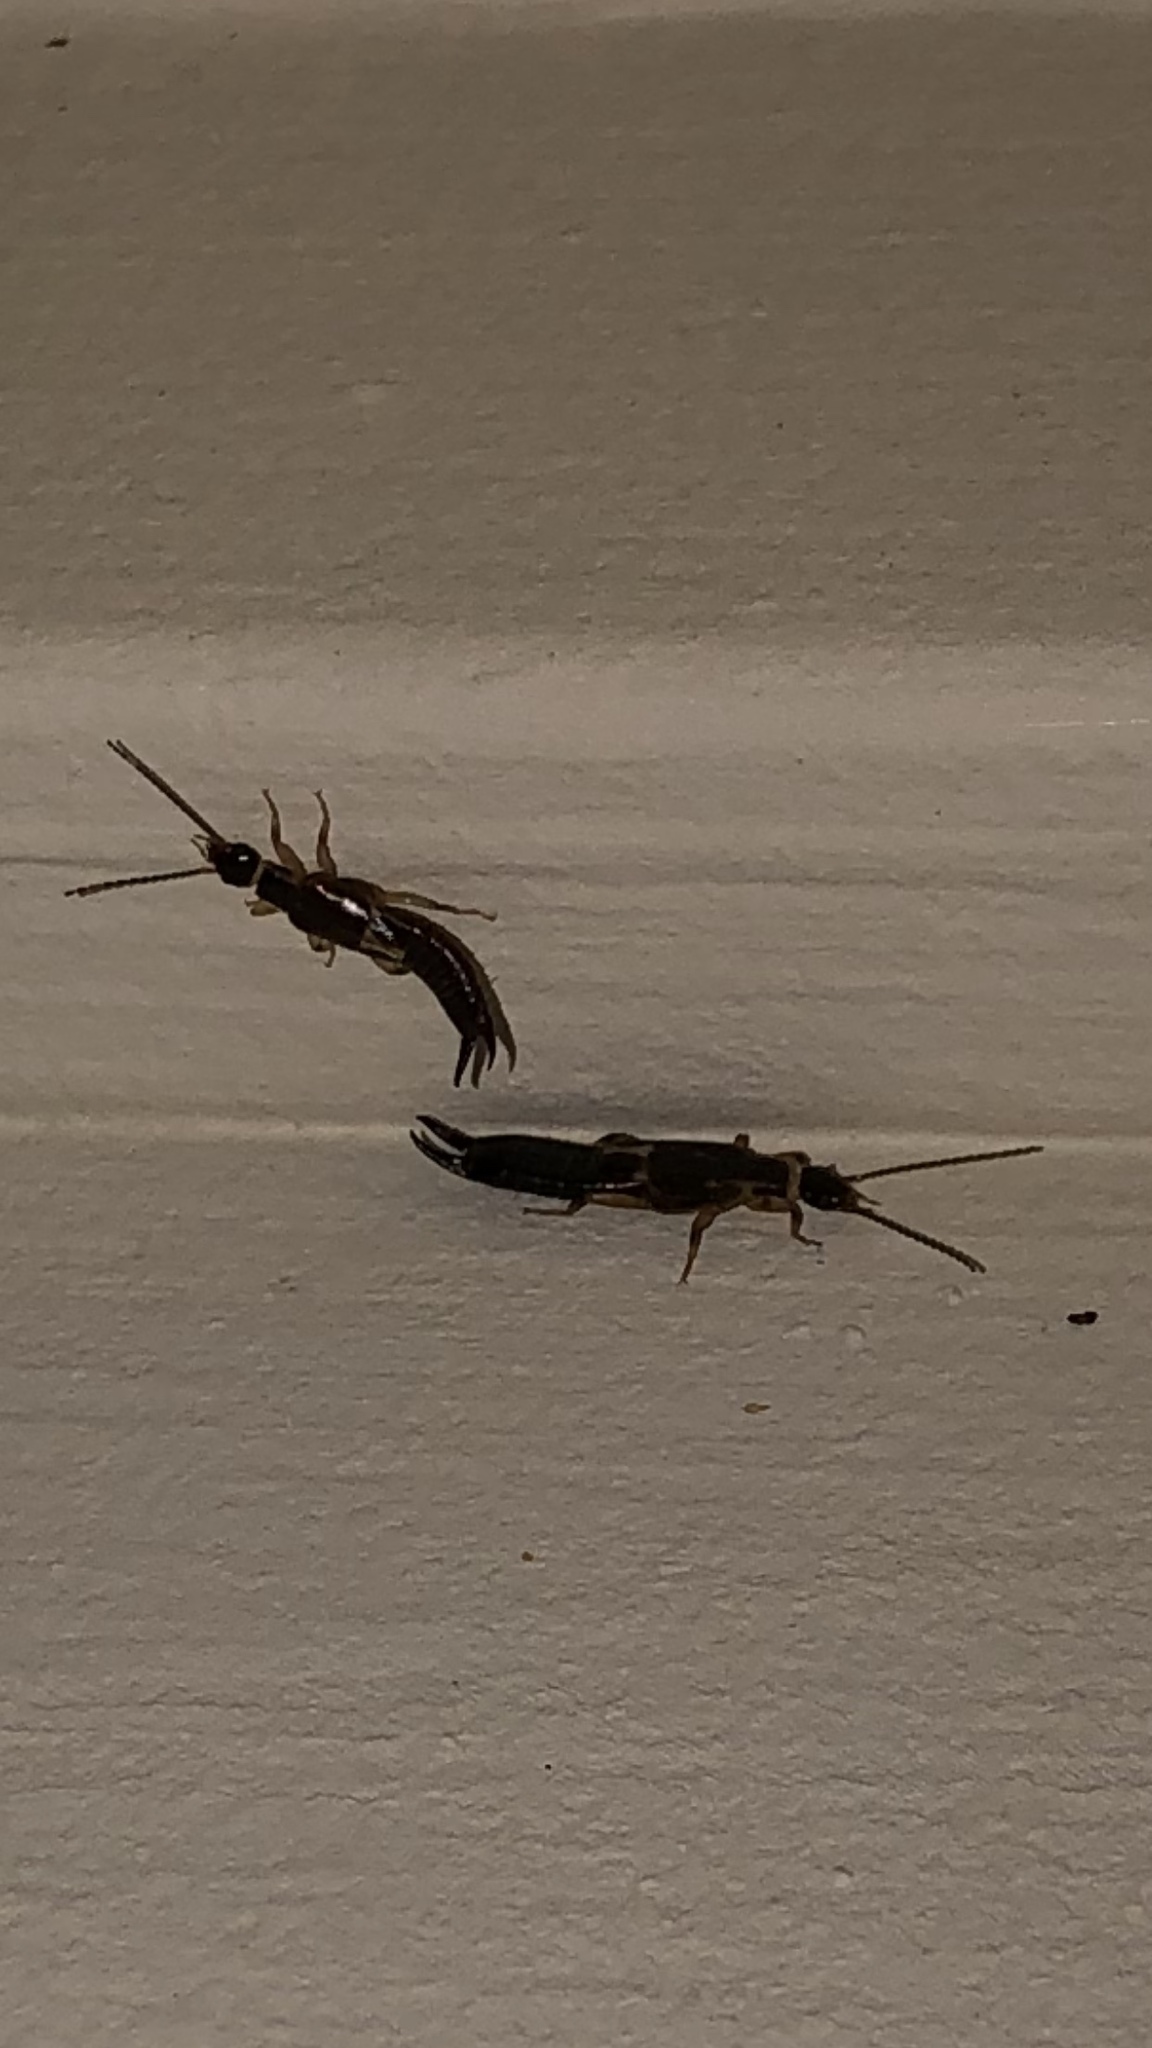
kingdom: Animalia
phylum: Arthropoda
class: Insecta
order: Dermaptera
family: Anisolabididae
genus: Euborellia
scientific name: Euborellia cincticollis
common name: African earwig
